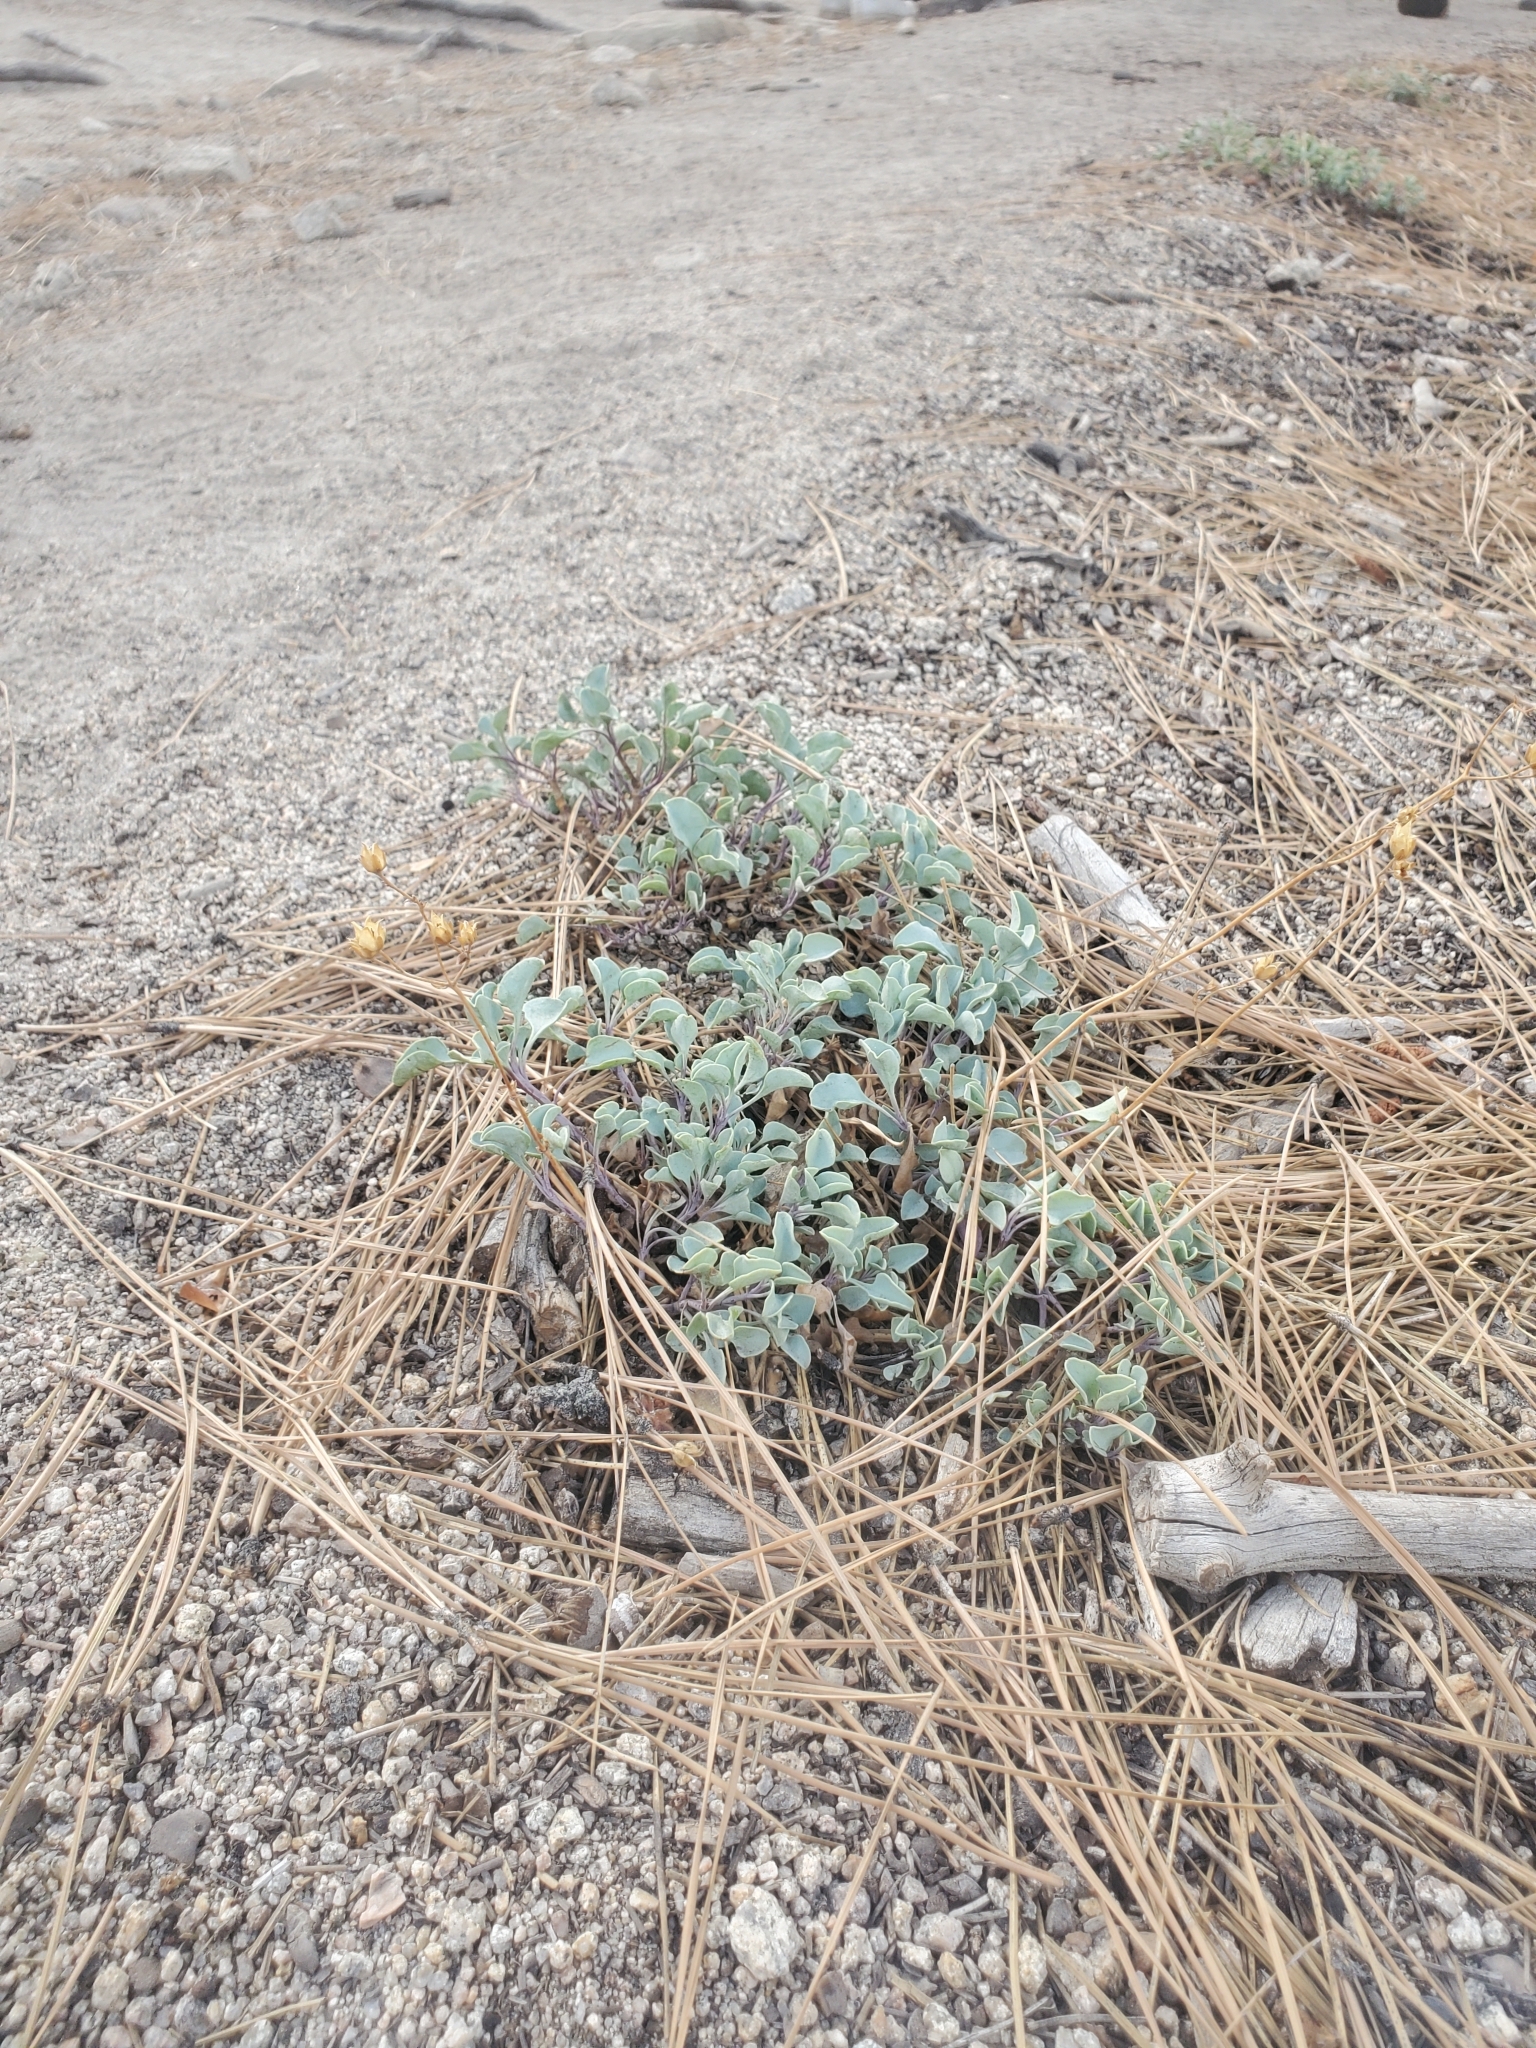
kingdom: Plantae
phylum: Tracheophyta
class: Magnoliopsida
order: Lamiales
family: Plantaginaceae
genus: Penstemon
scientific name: Penstemon caesius
